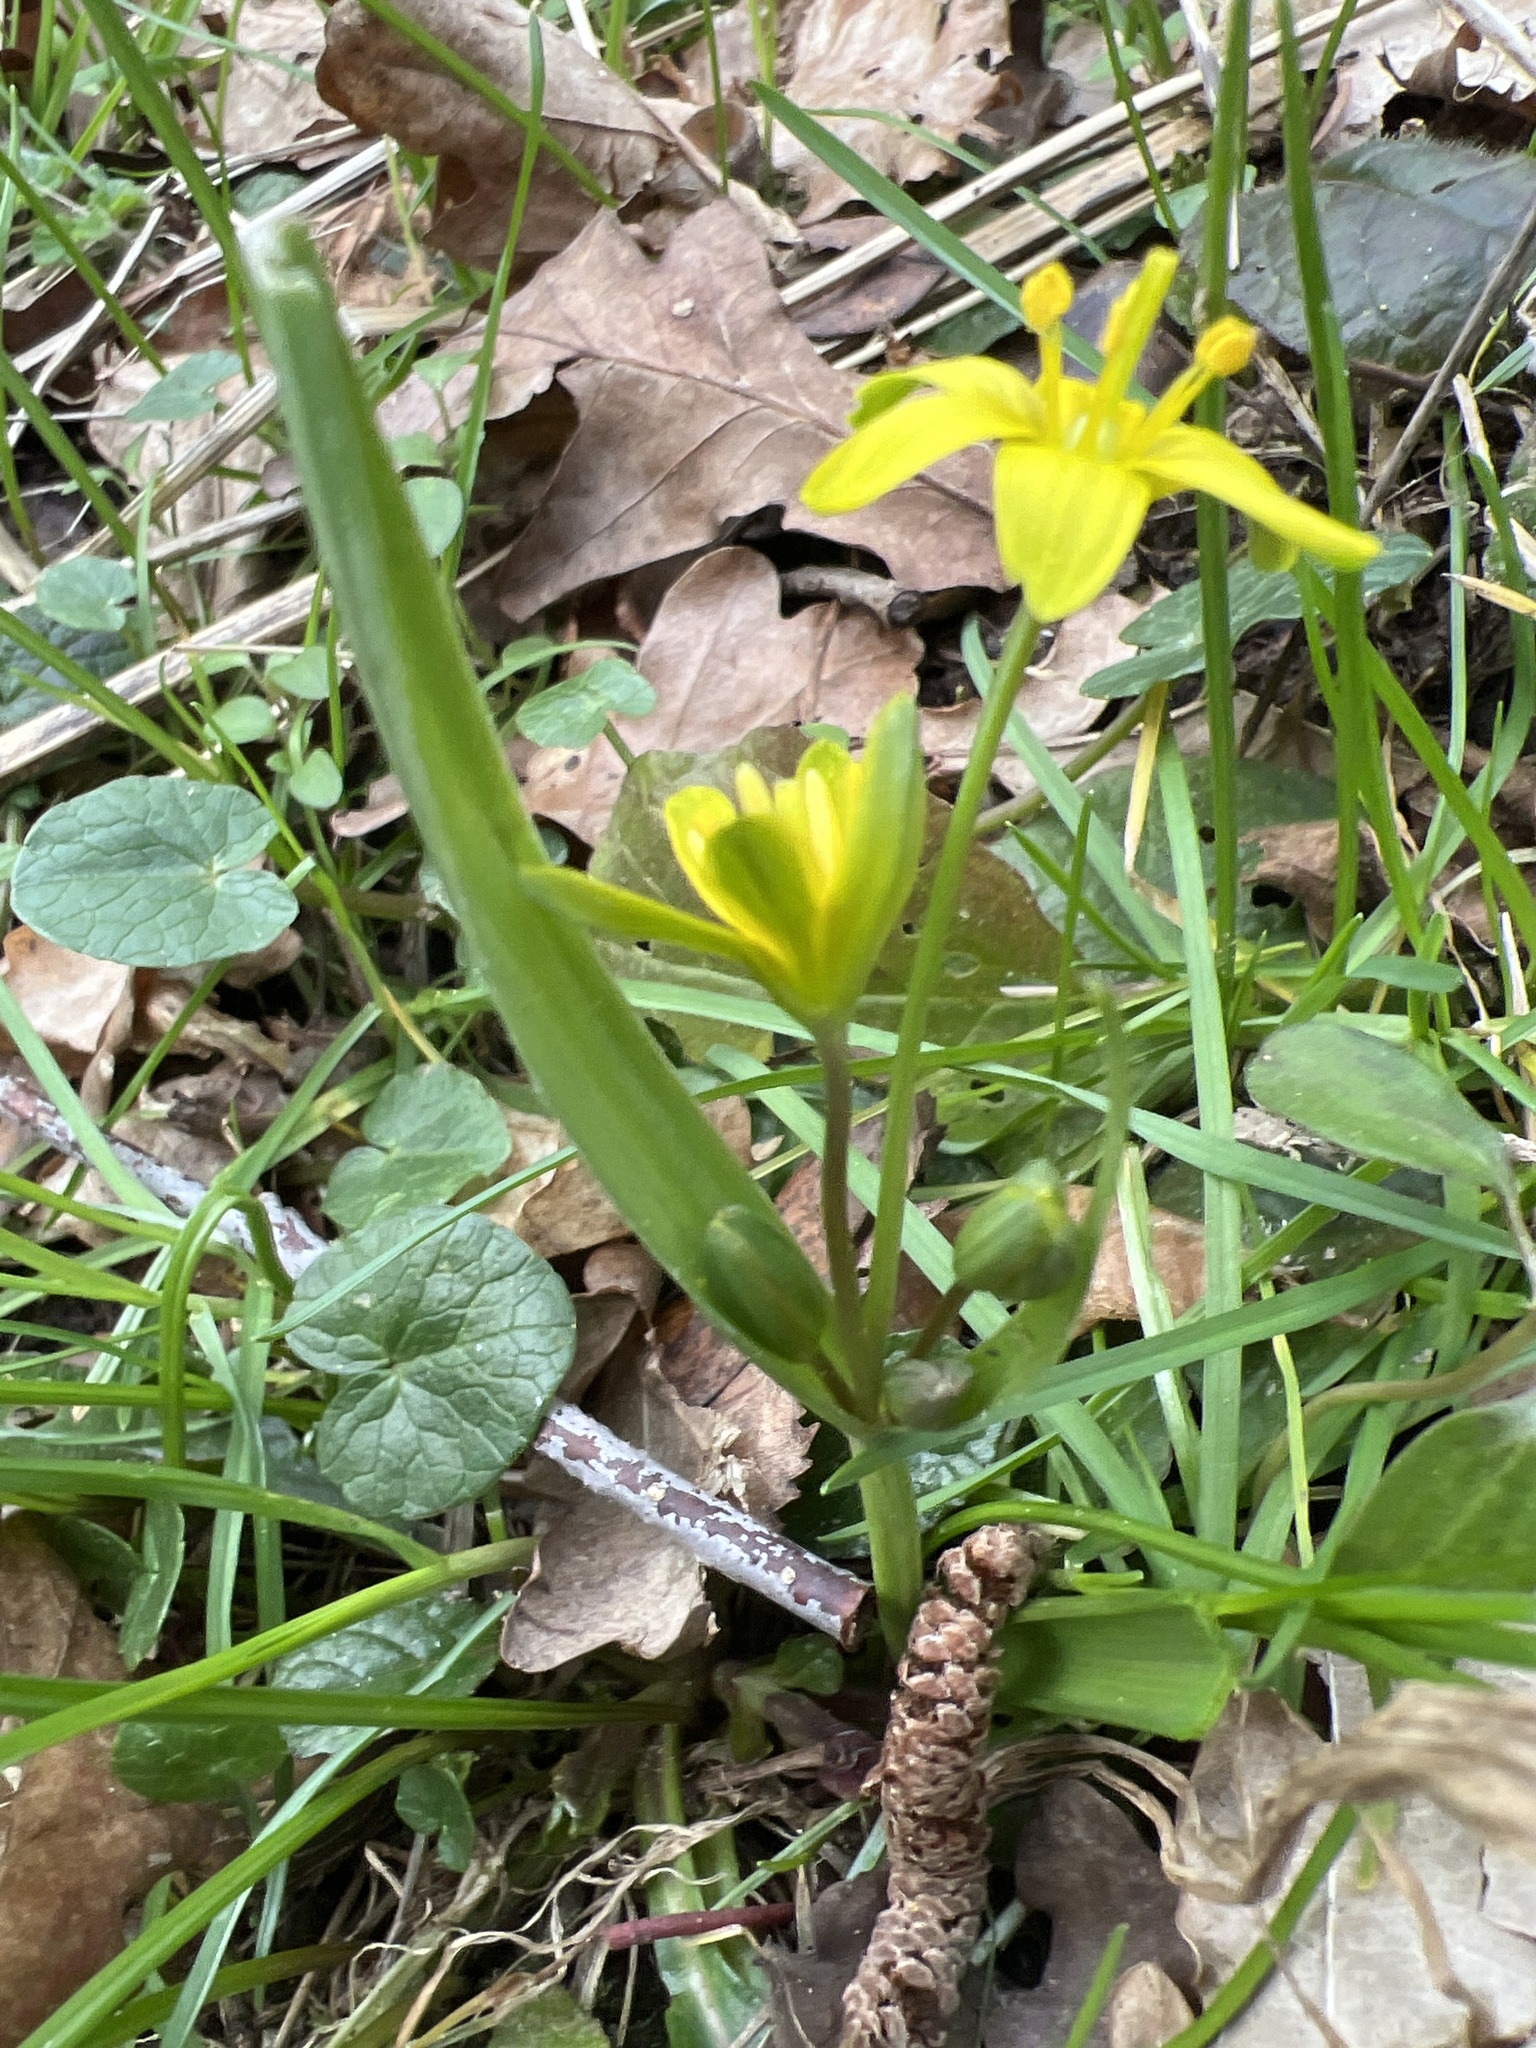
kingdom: Plantae
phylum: Tracheophyta
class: Liliopsida
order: Liliales
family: Liliaceae
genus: Gagea
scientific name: Gagea lutea
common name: Yellow star-of-bethlehem
